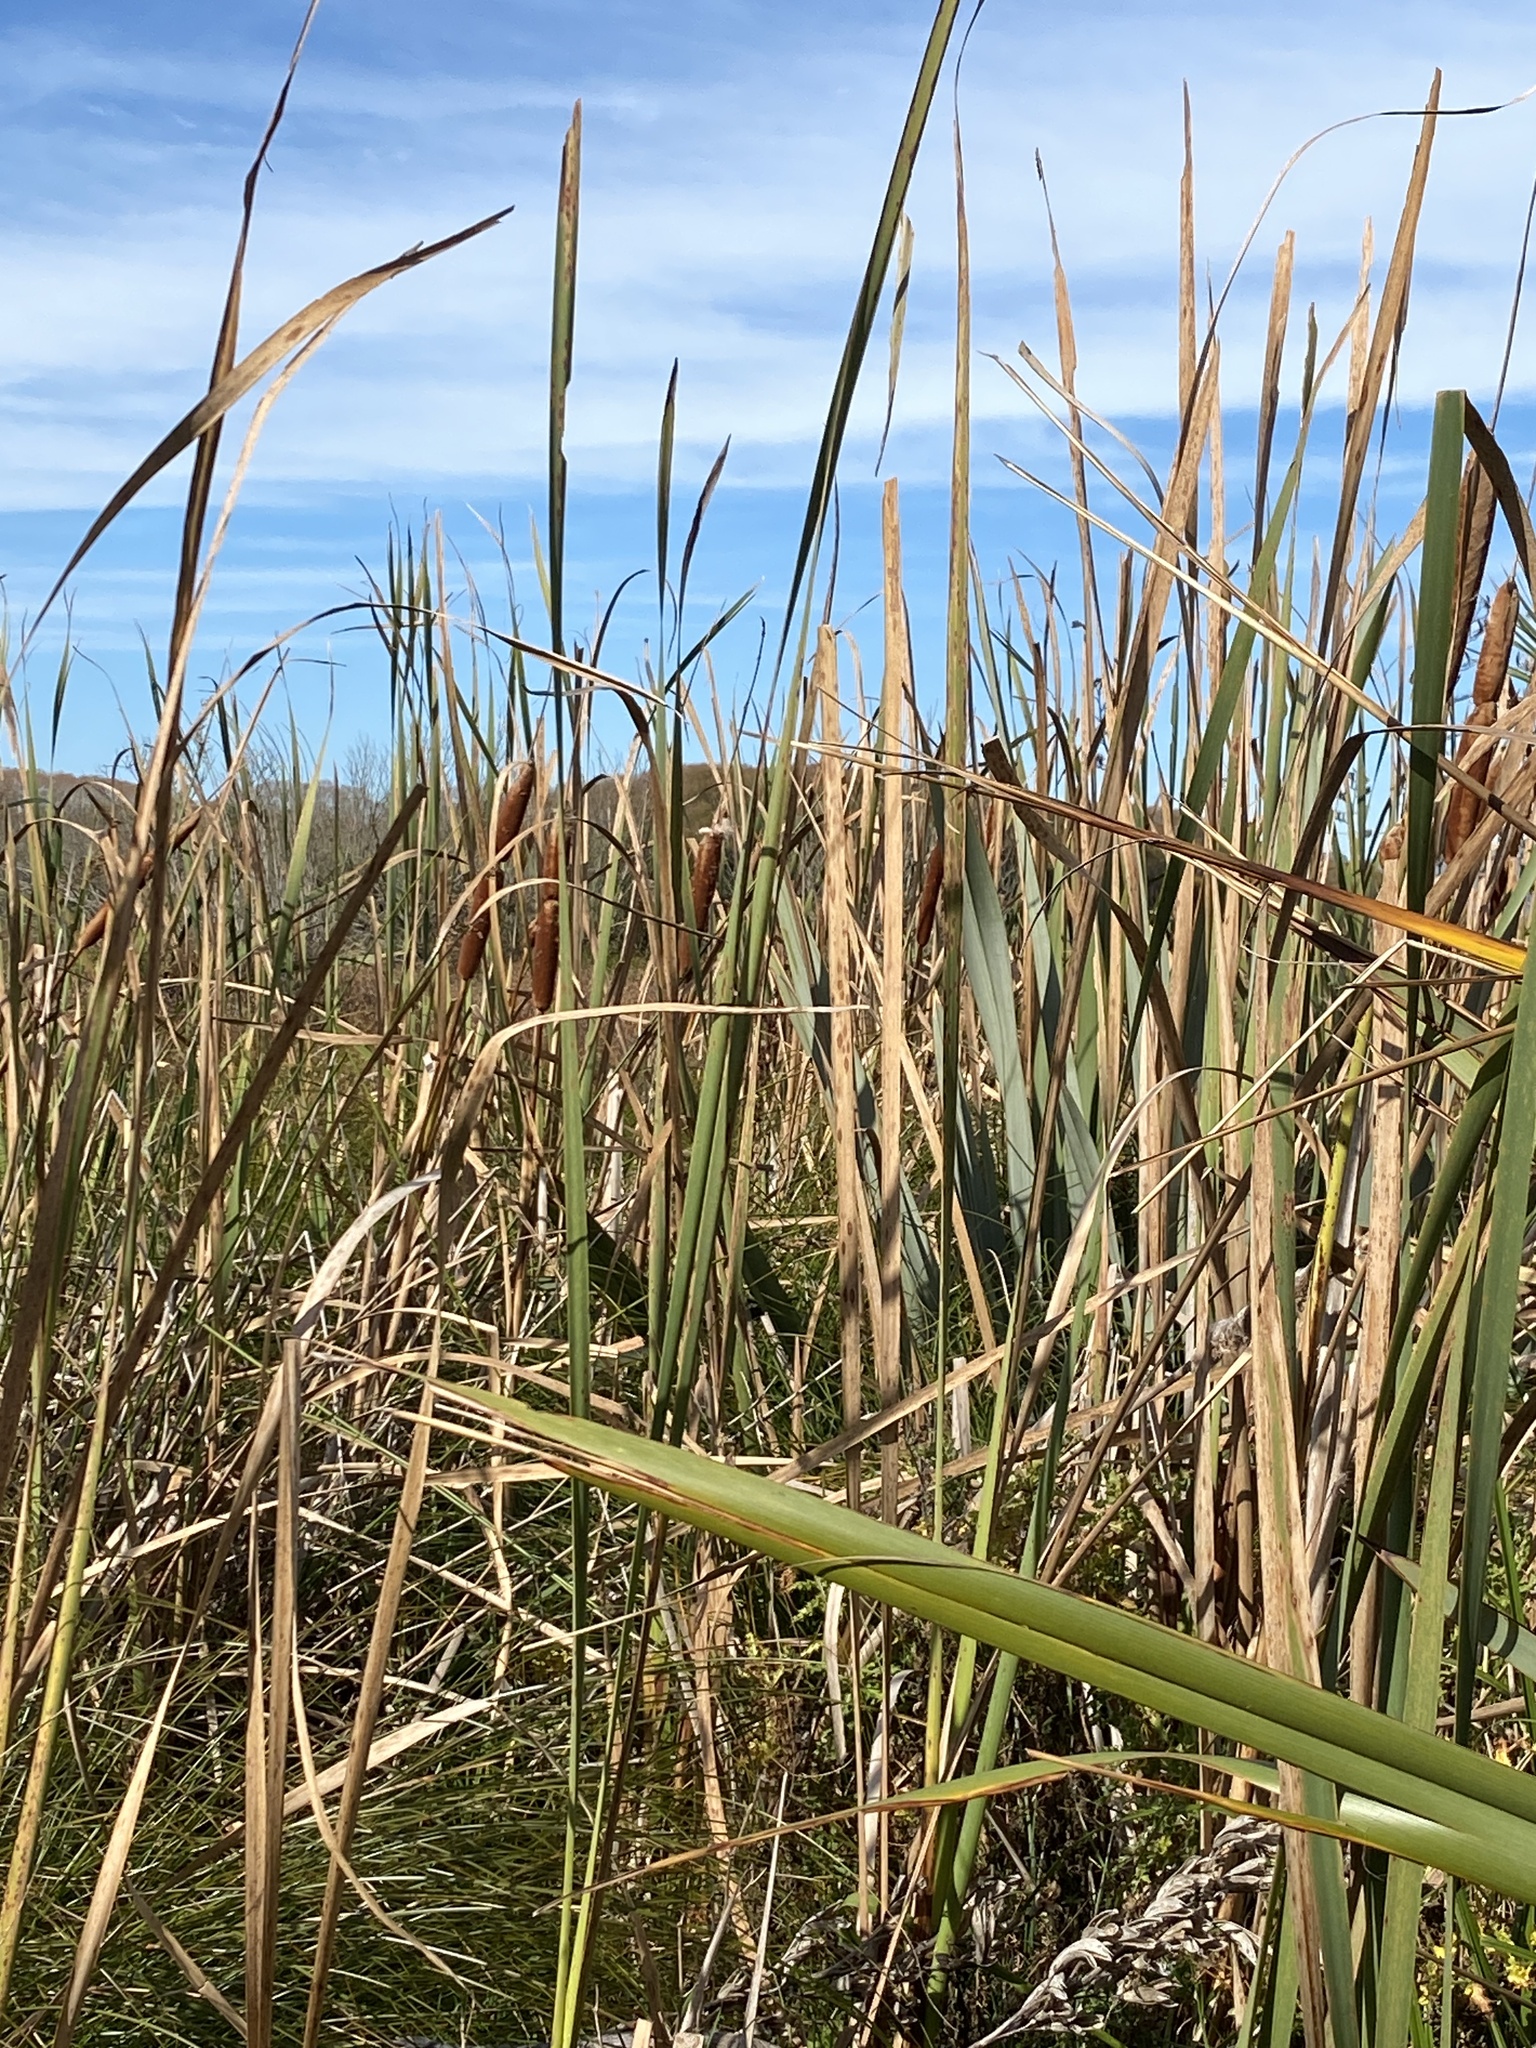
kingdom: Plantae
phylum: Tracheophyta
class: Liliopsida
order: Poales
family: Typhaceae
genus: Typha
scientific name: Typha orientalis
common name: Bullrush
